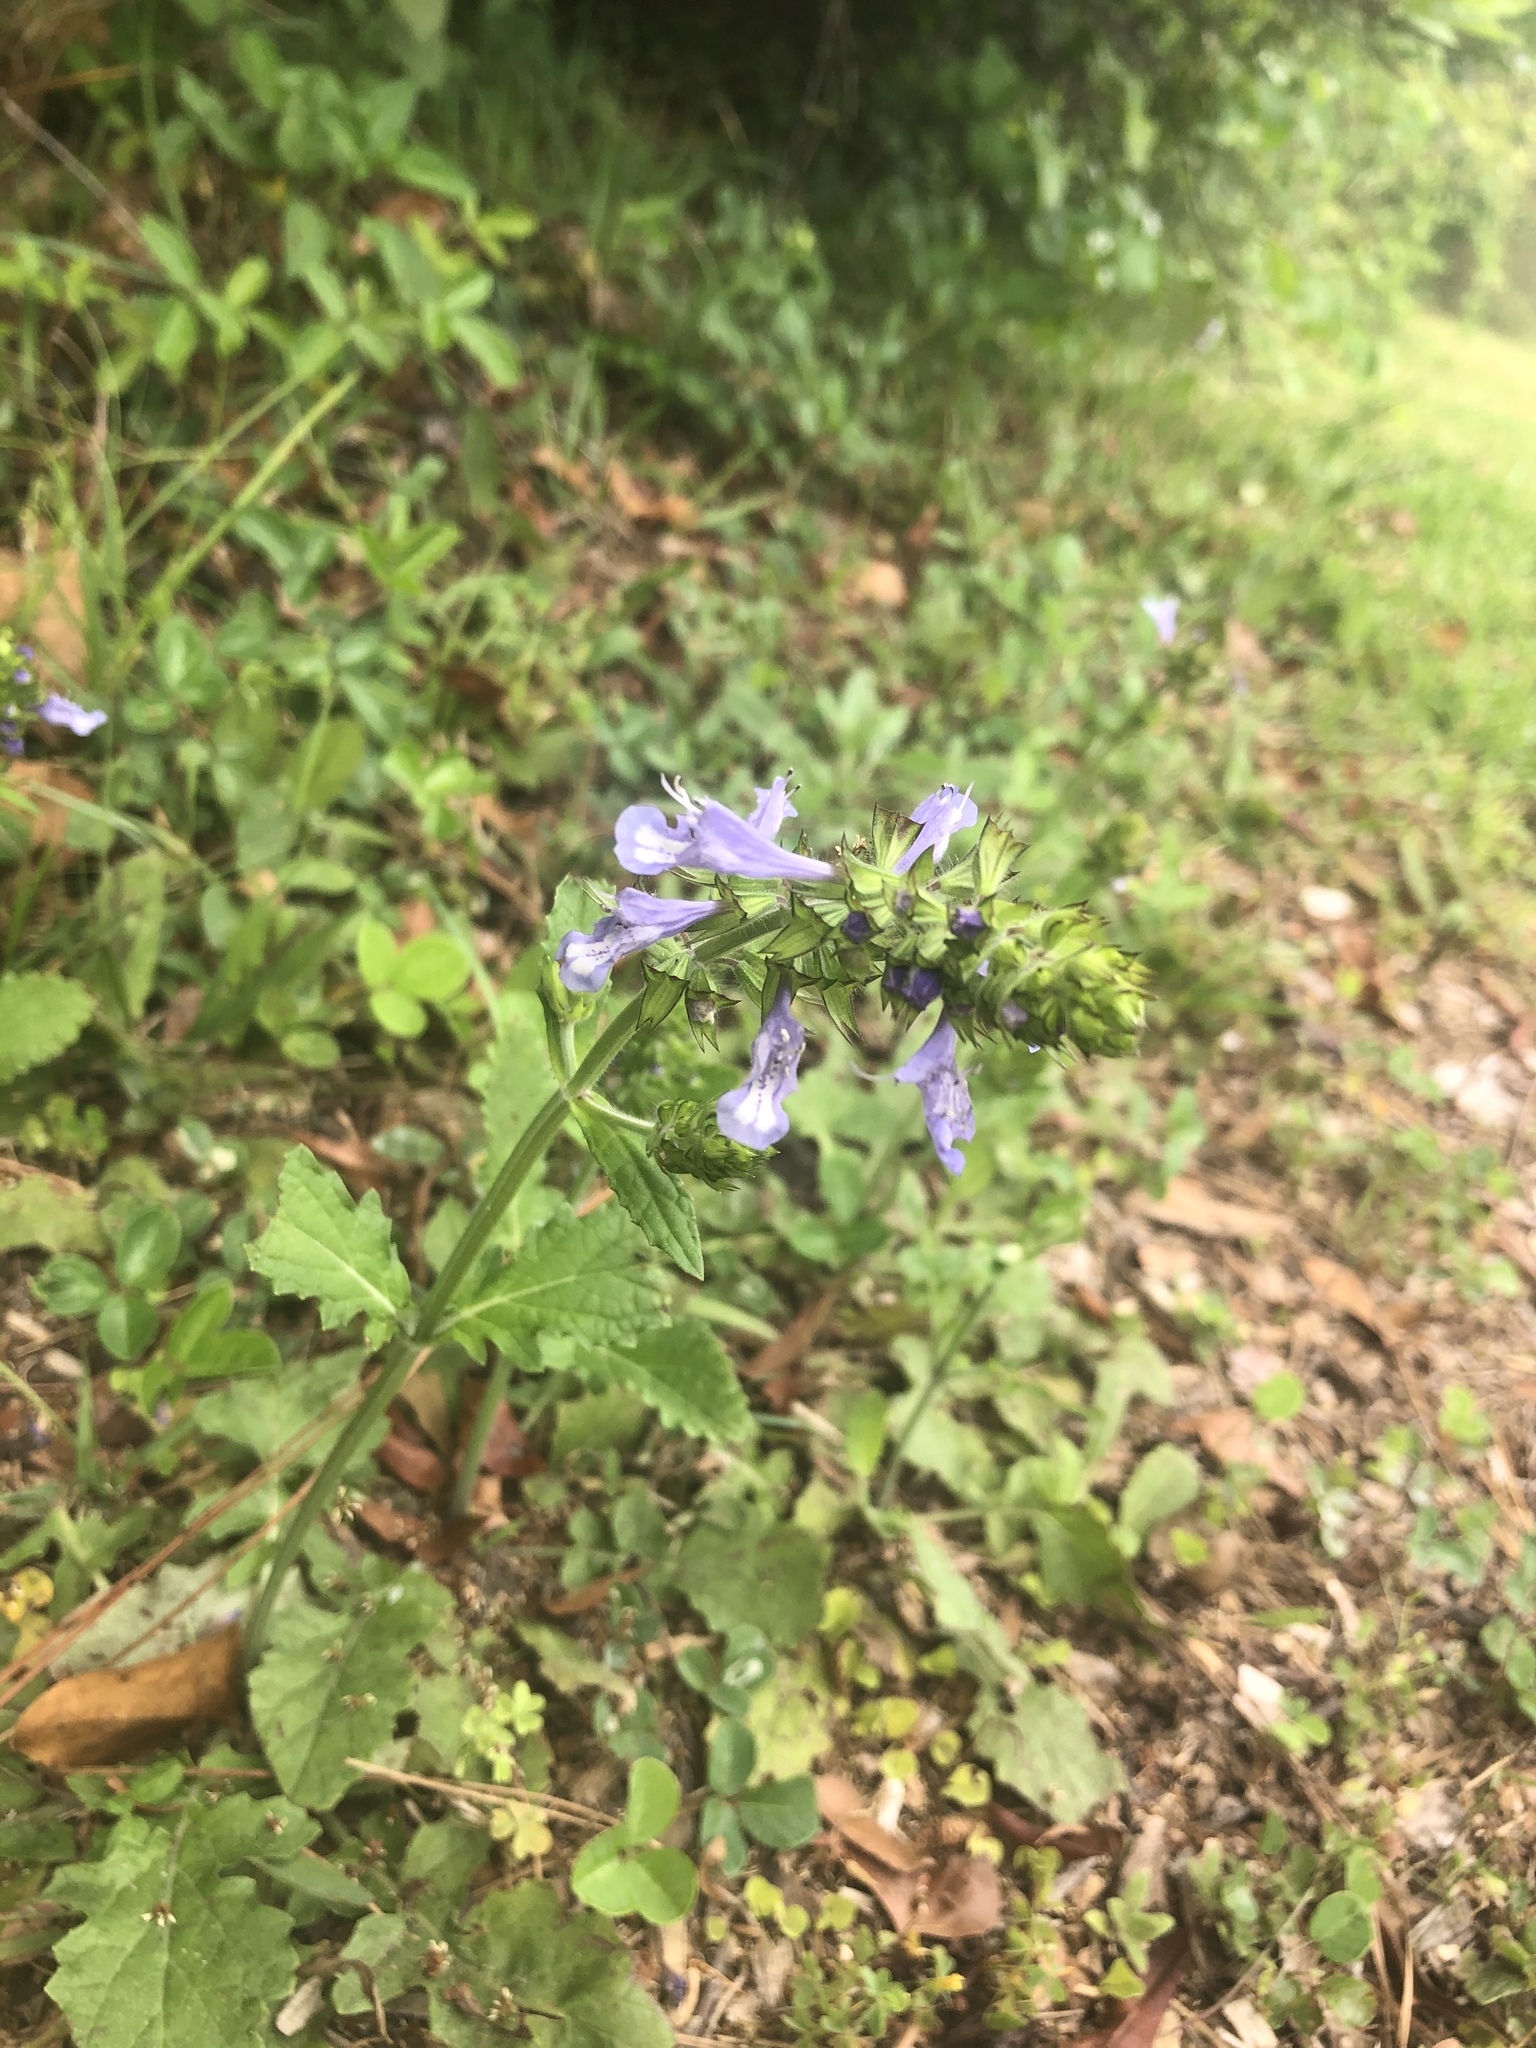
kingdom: Plantae
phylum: Tracheophyta
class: Magnoliopsida
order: Lamiales
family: Lamiaceae
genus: Salvia
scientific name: Salvia lyrata
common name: Cancerweed
